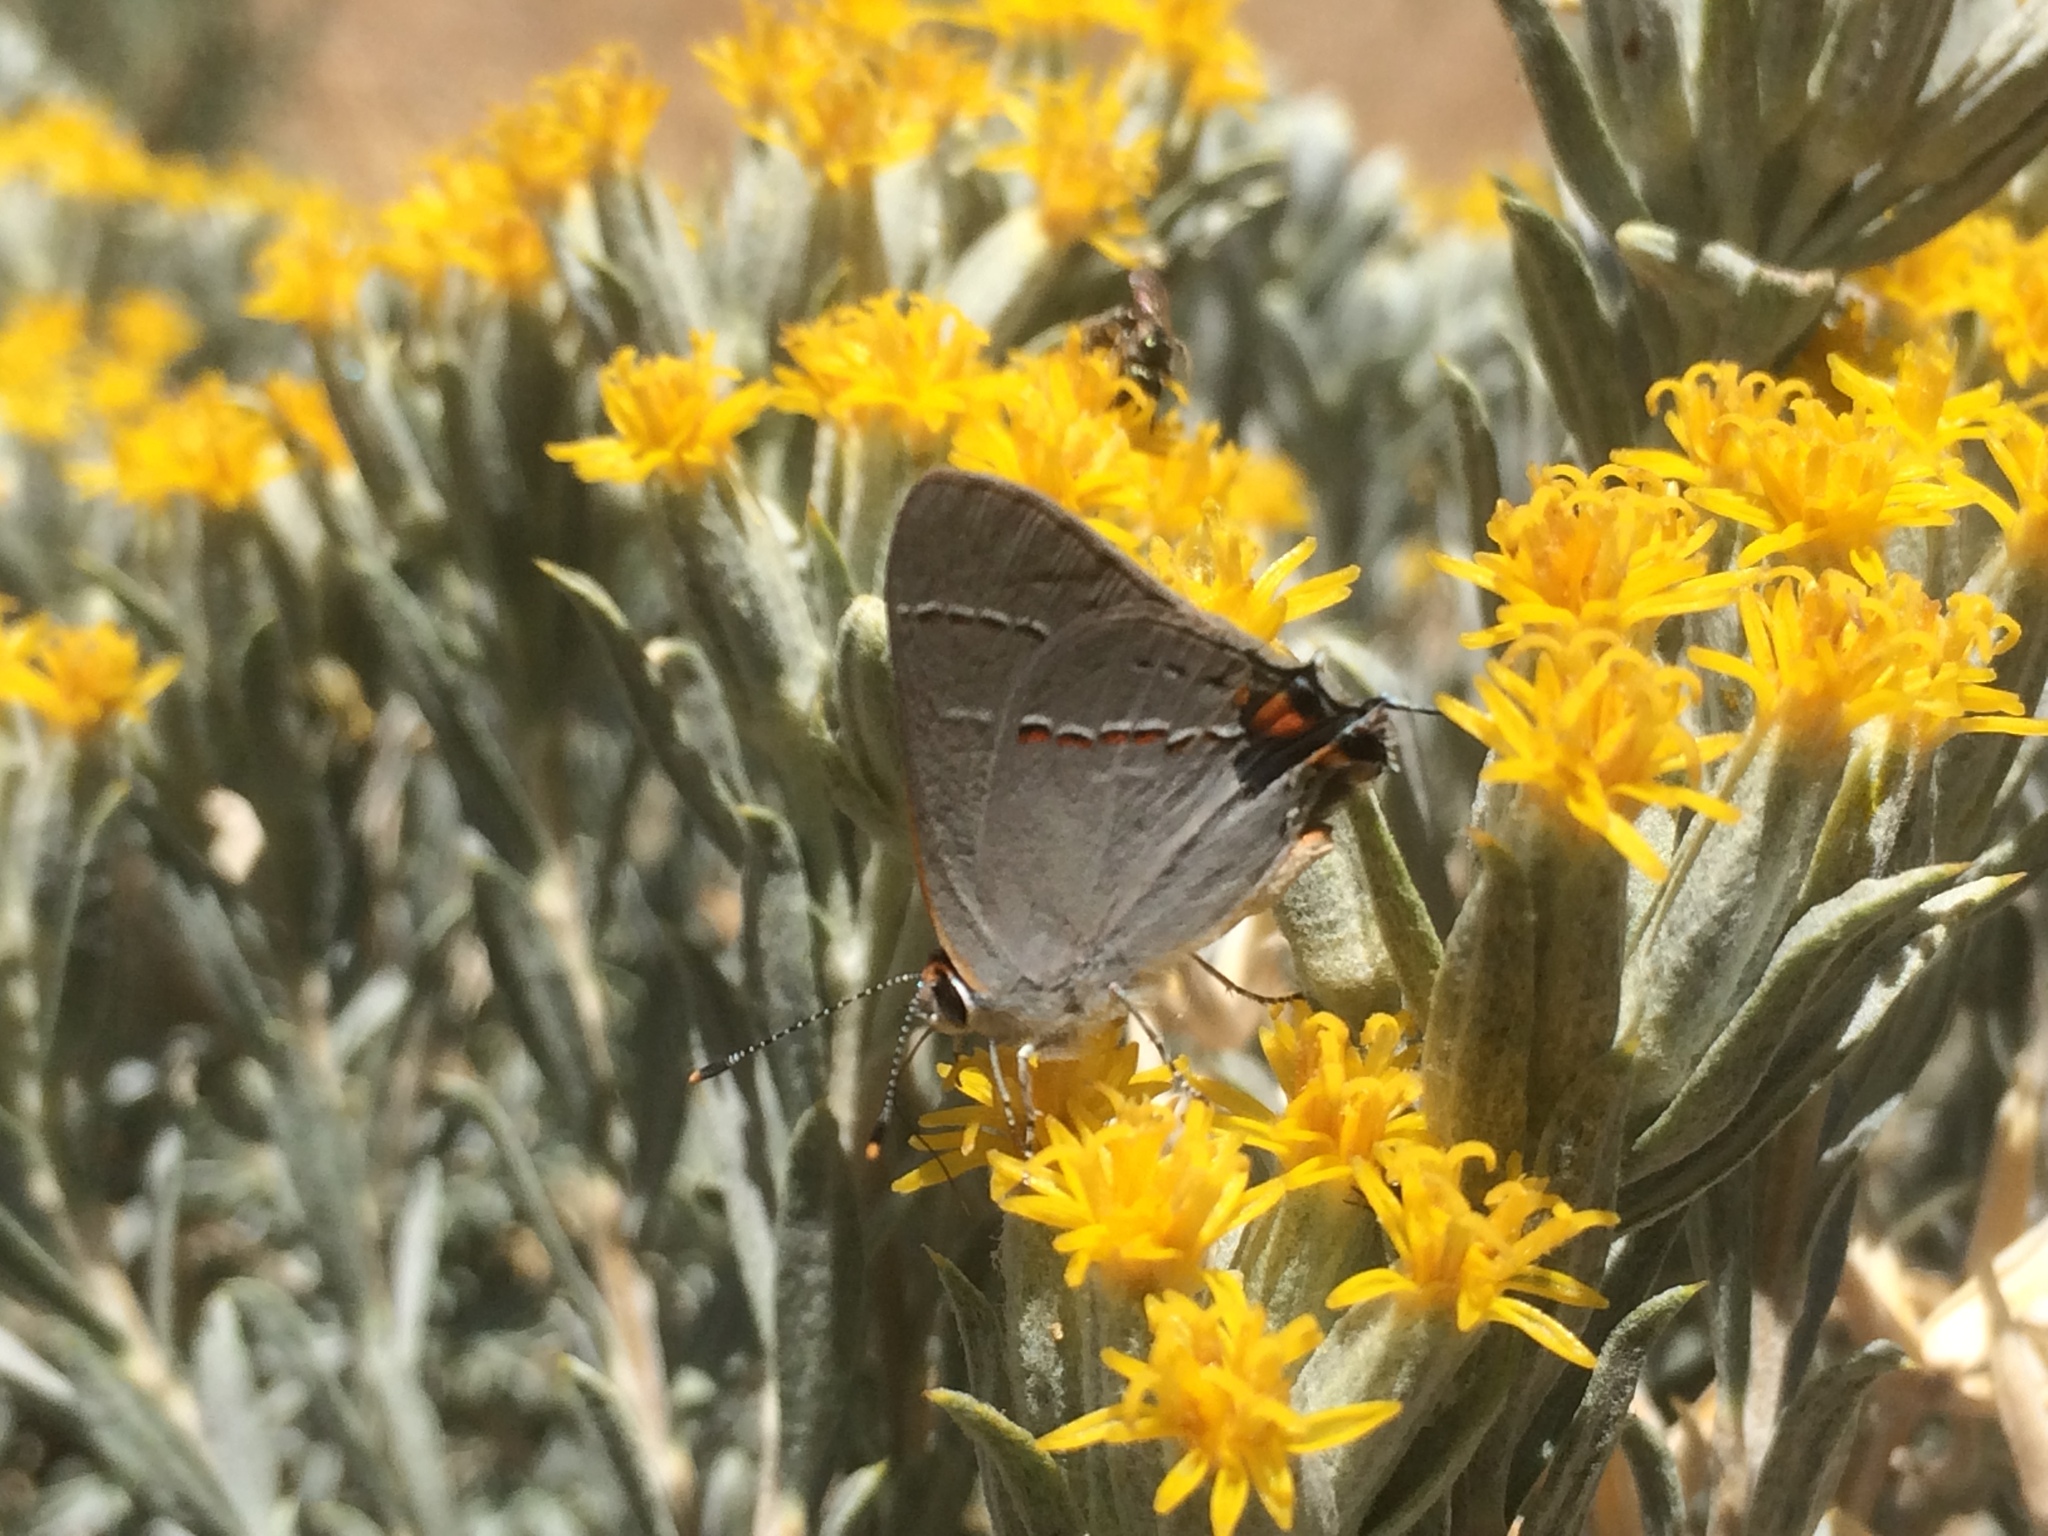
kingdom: Animalia
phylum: Arthropoda
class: Insecta
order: Lepidoptera
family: Lycaenidae
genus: Strymon
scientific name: Strymon melinus
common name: Gray hairstreak
